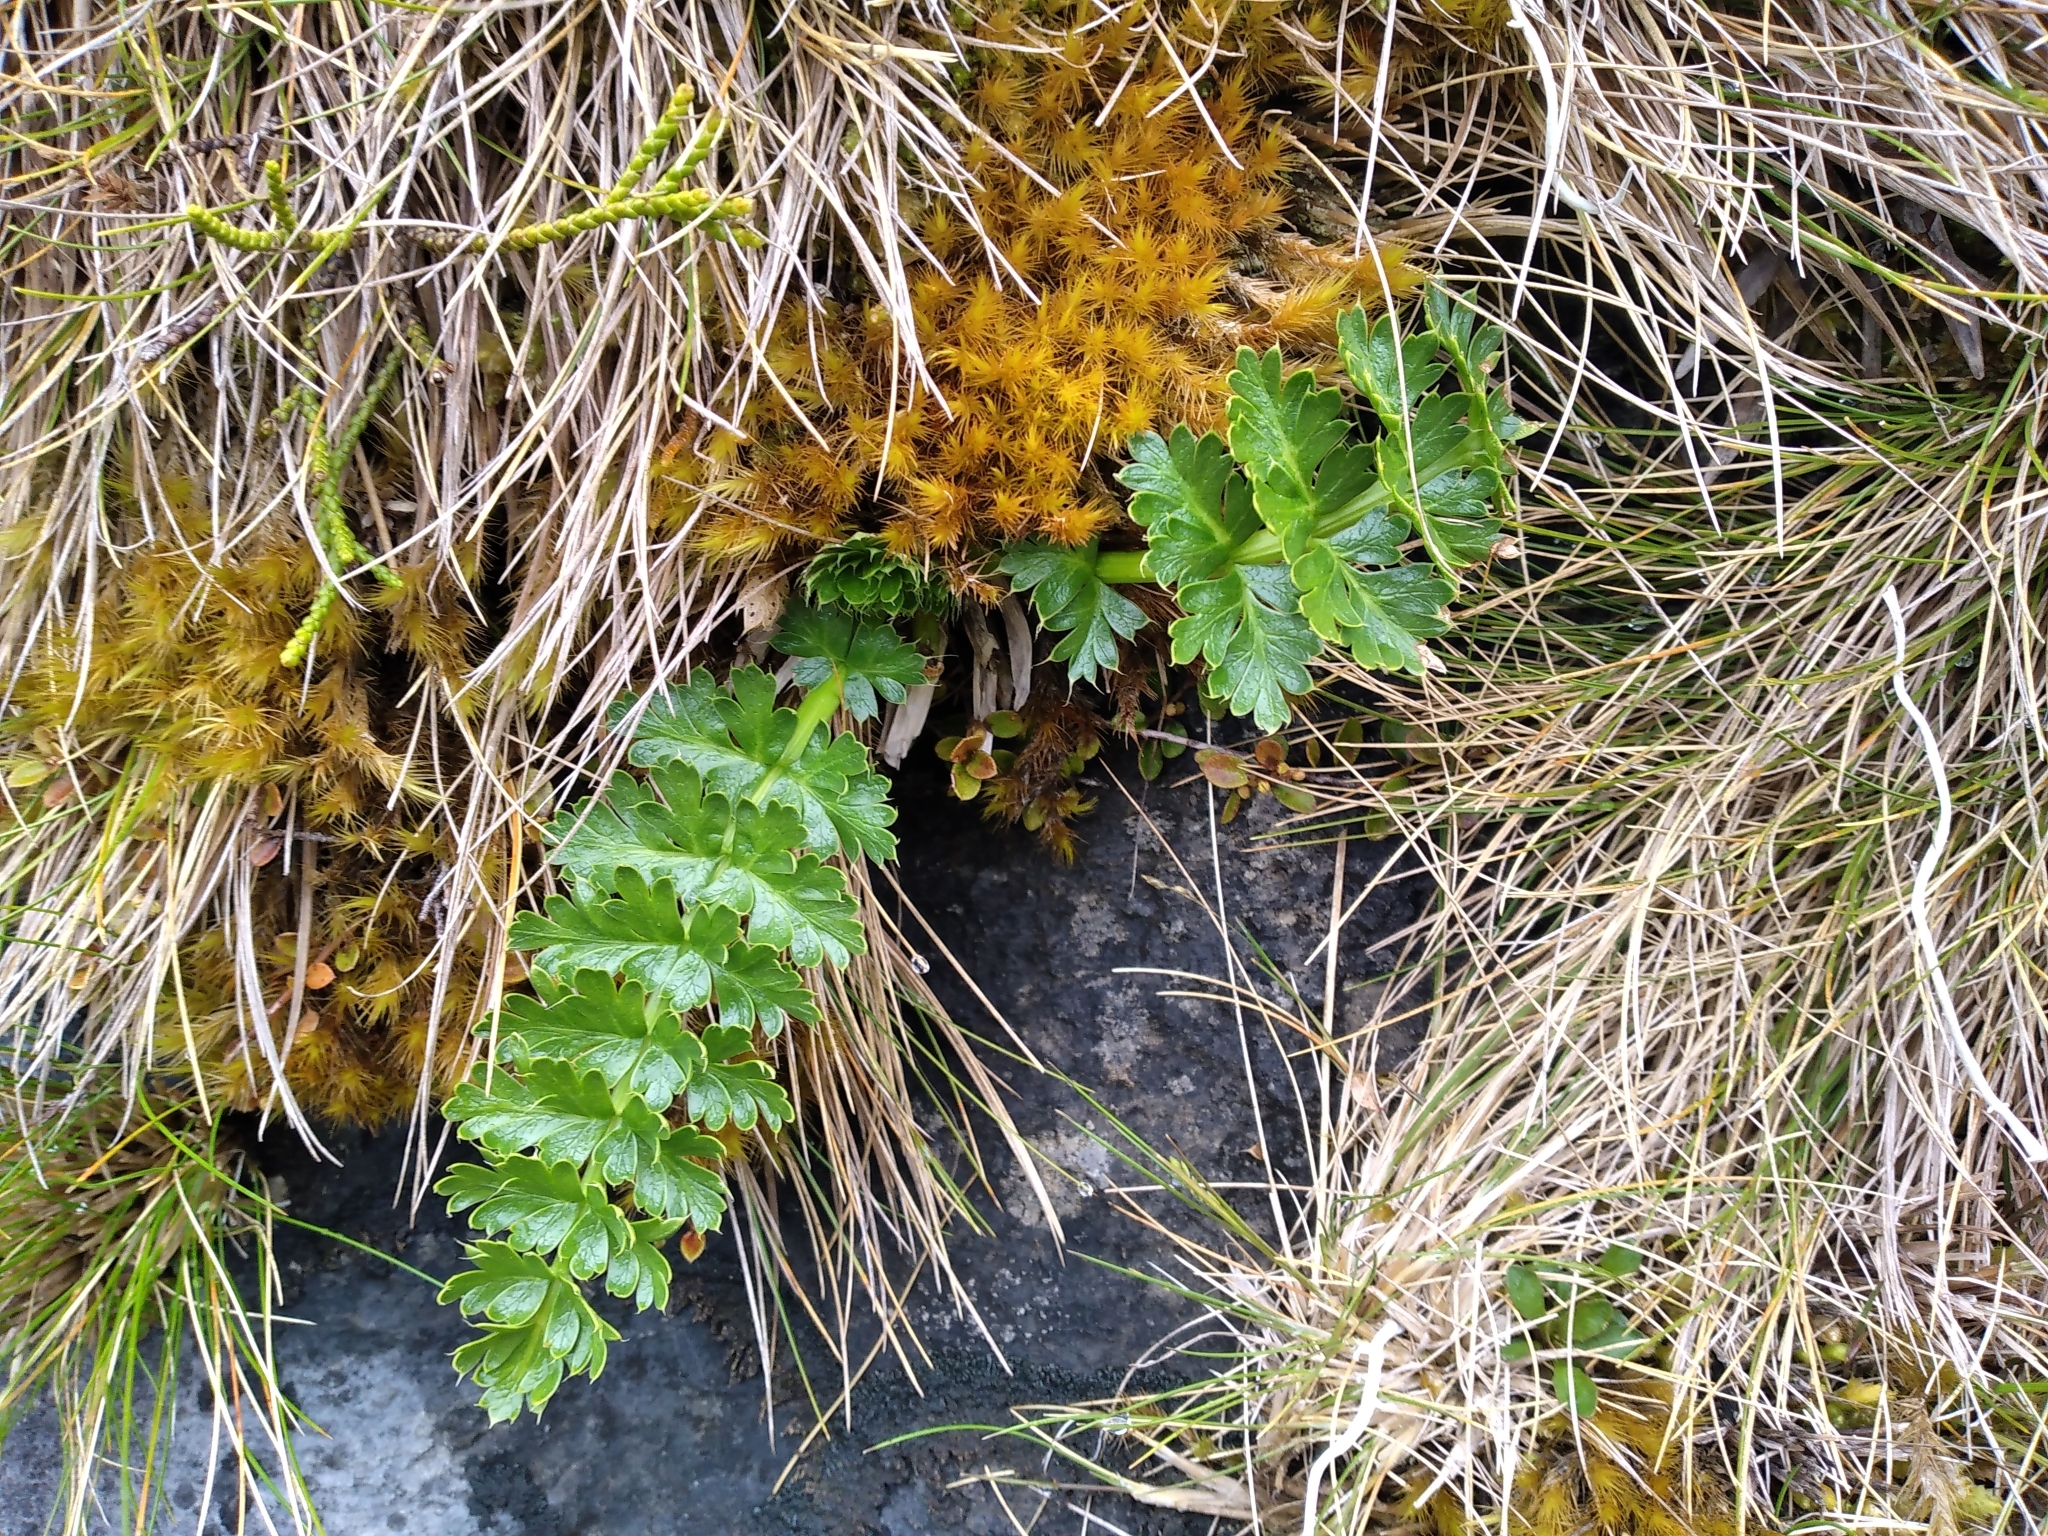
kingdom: Plantae
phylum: Tracheophyta
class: Magnoliopsida
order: Apiales
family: Apiaceae
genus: Anisotome
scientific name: Anisotome pilifera
